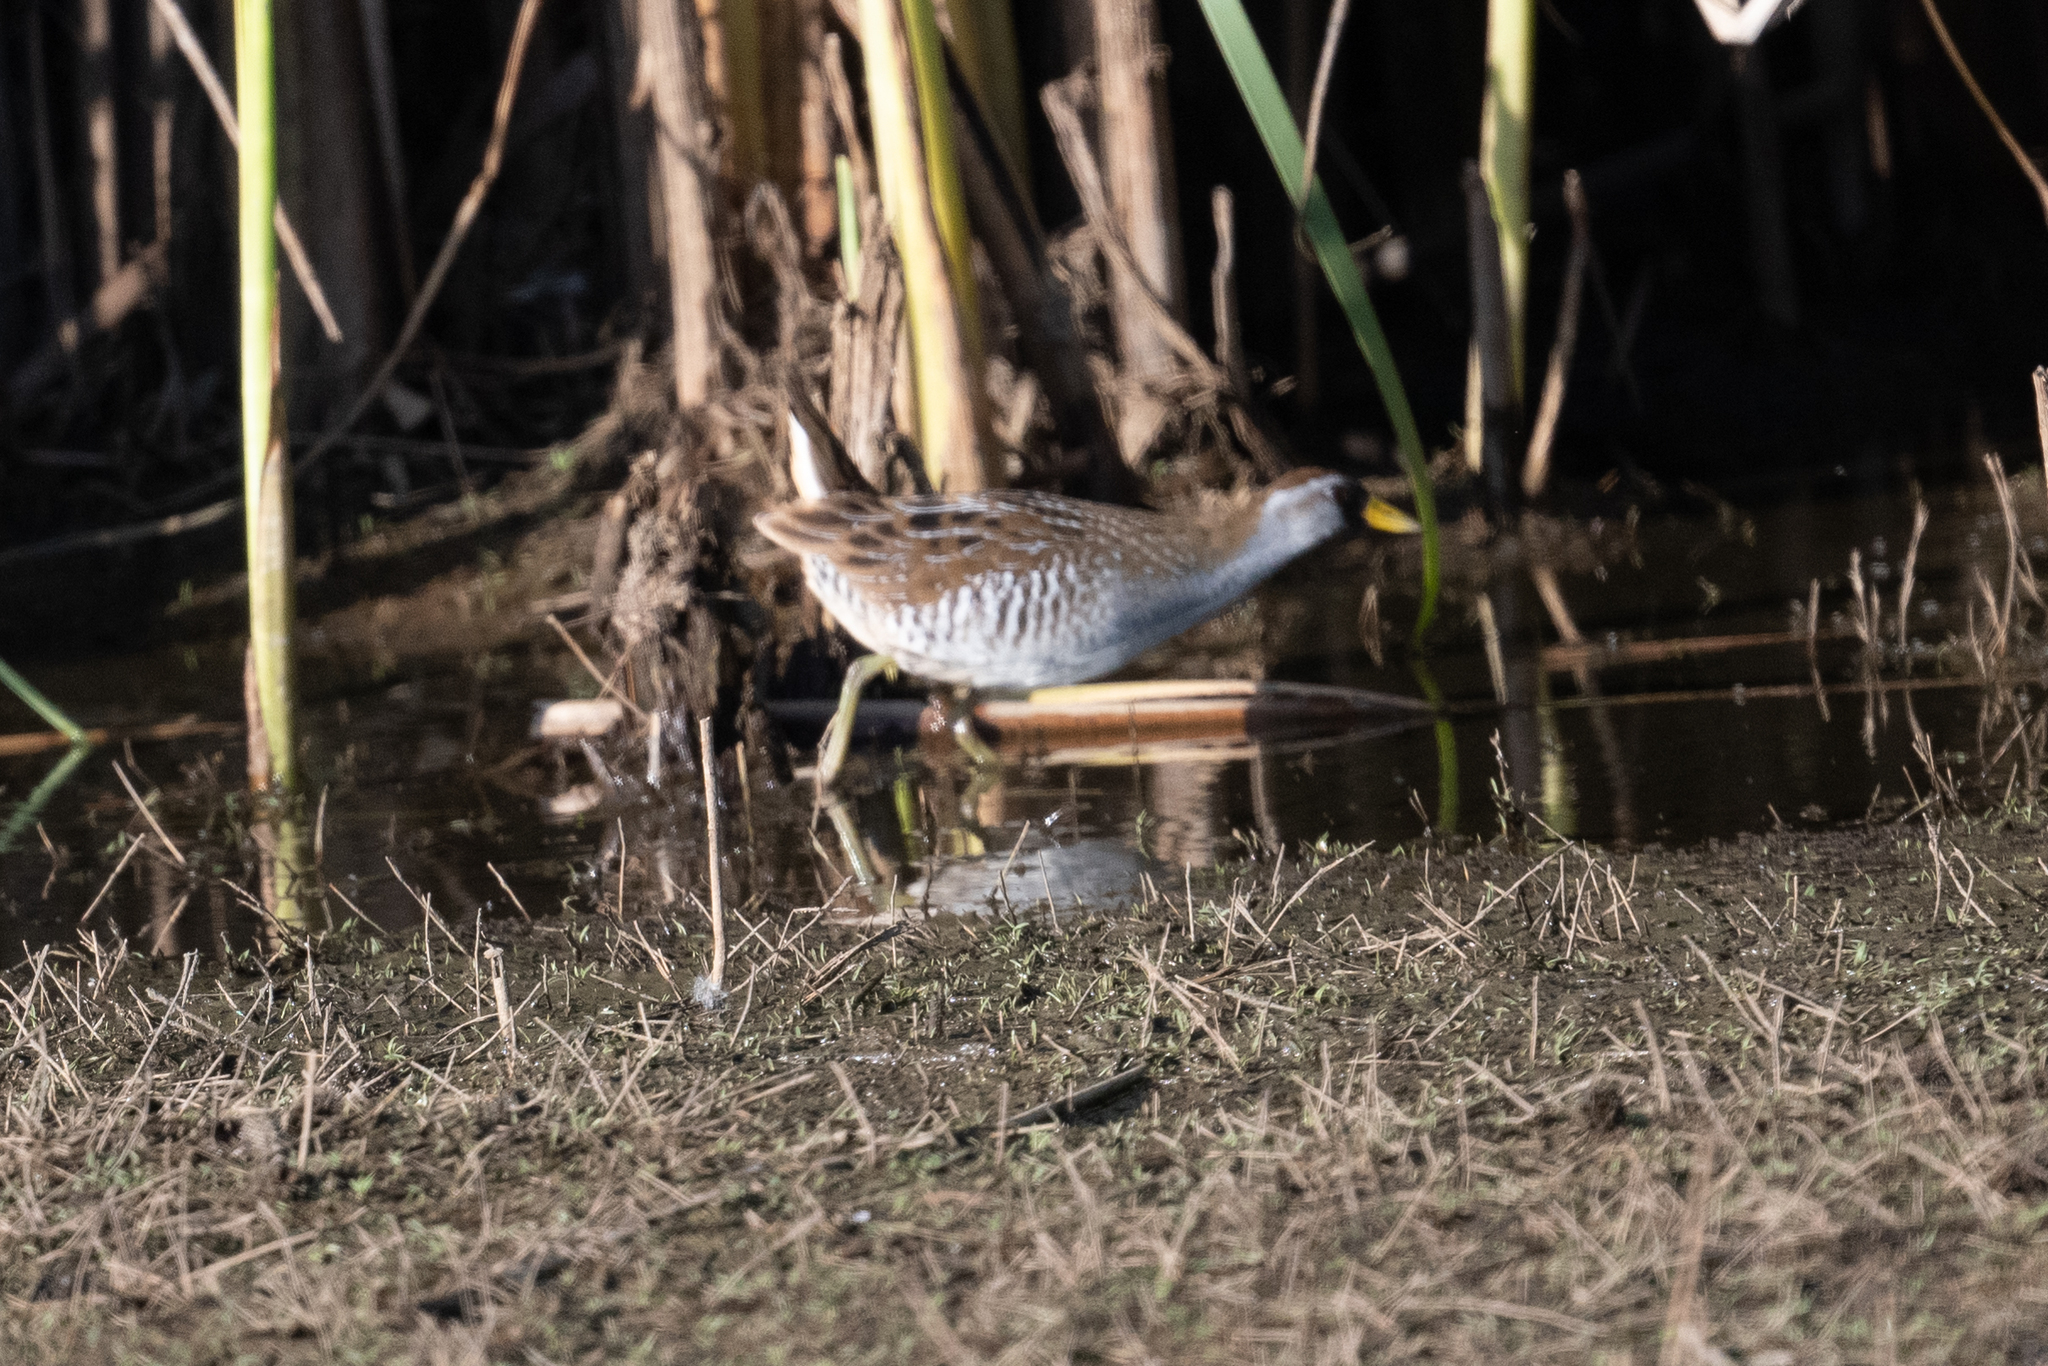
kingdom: Animalia
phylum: Chordata
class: Aves
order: Gruiformes
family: Rallidae
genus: Porzana
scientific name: Porzana carolina
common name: Sora
